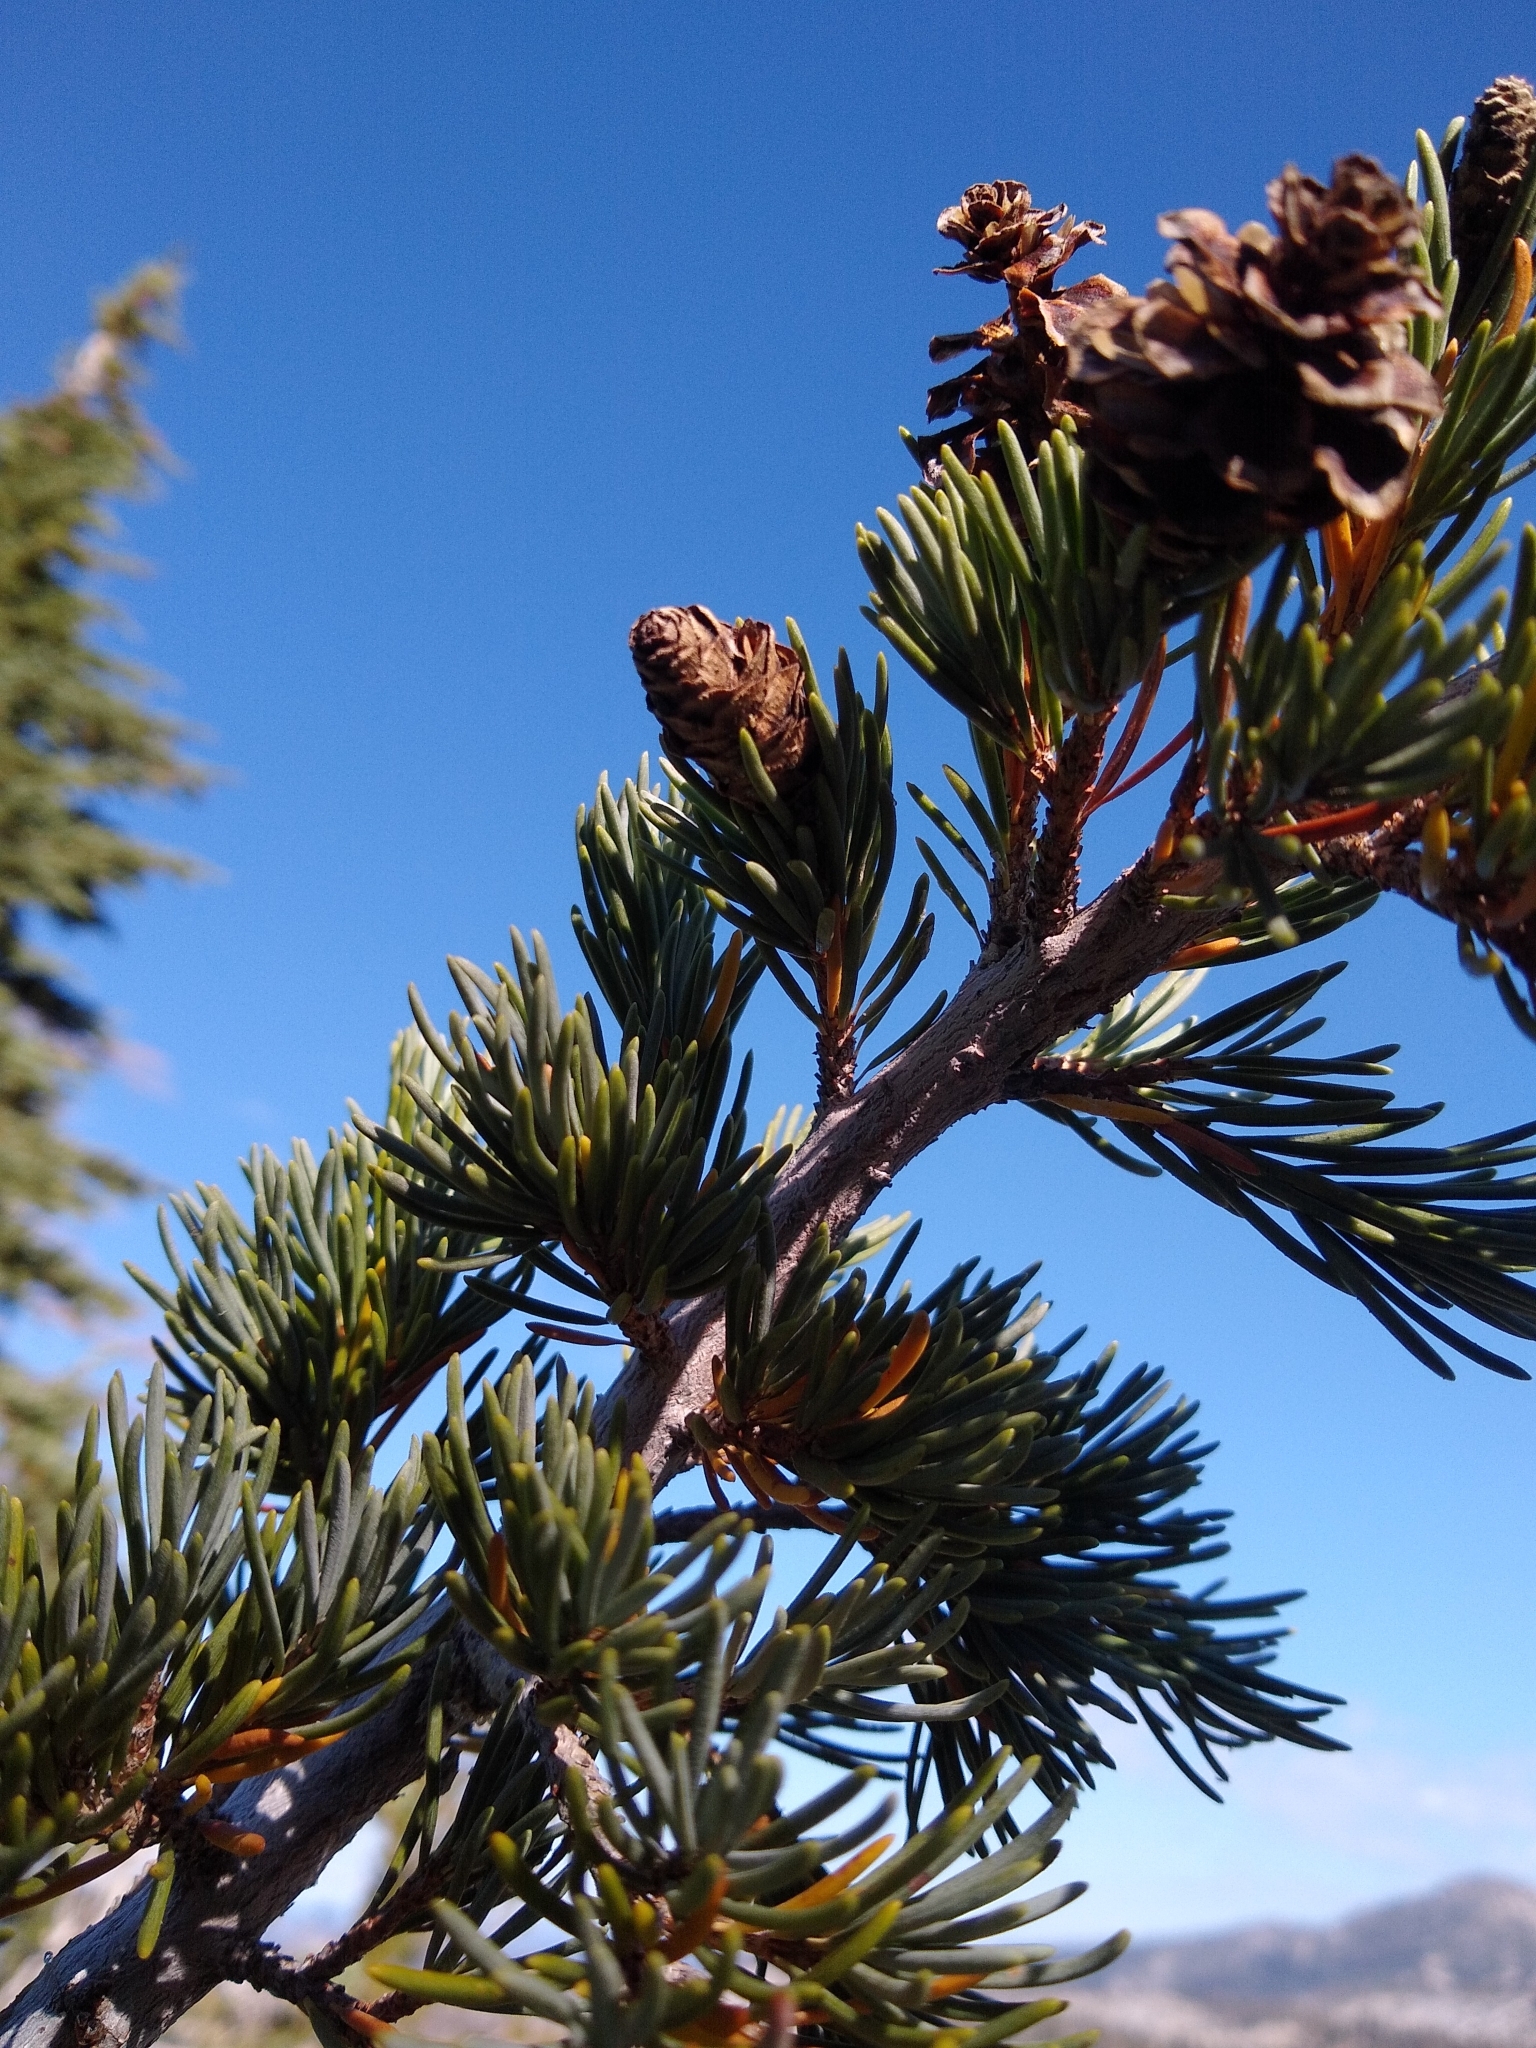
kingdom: Plantae
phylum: Tracheophyta
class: Pinopsida
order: Pinales
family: Pinaceae
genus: Tsuga
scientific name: Tsuga mertensiana
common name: Mountain hemlock
